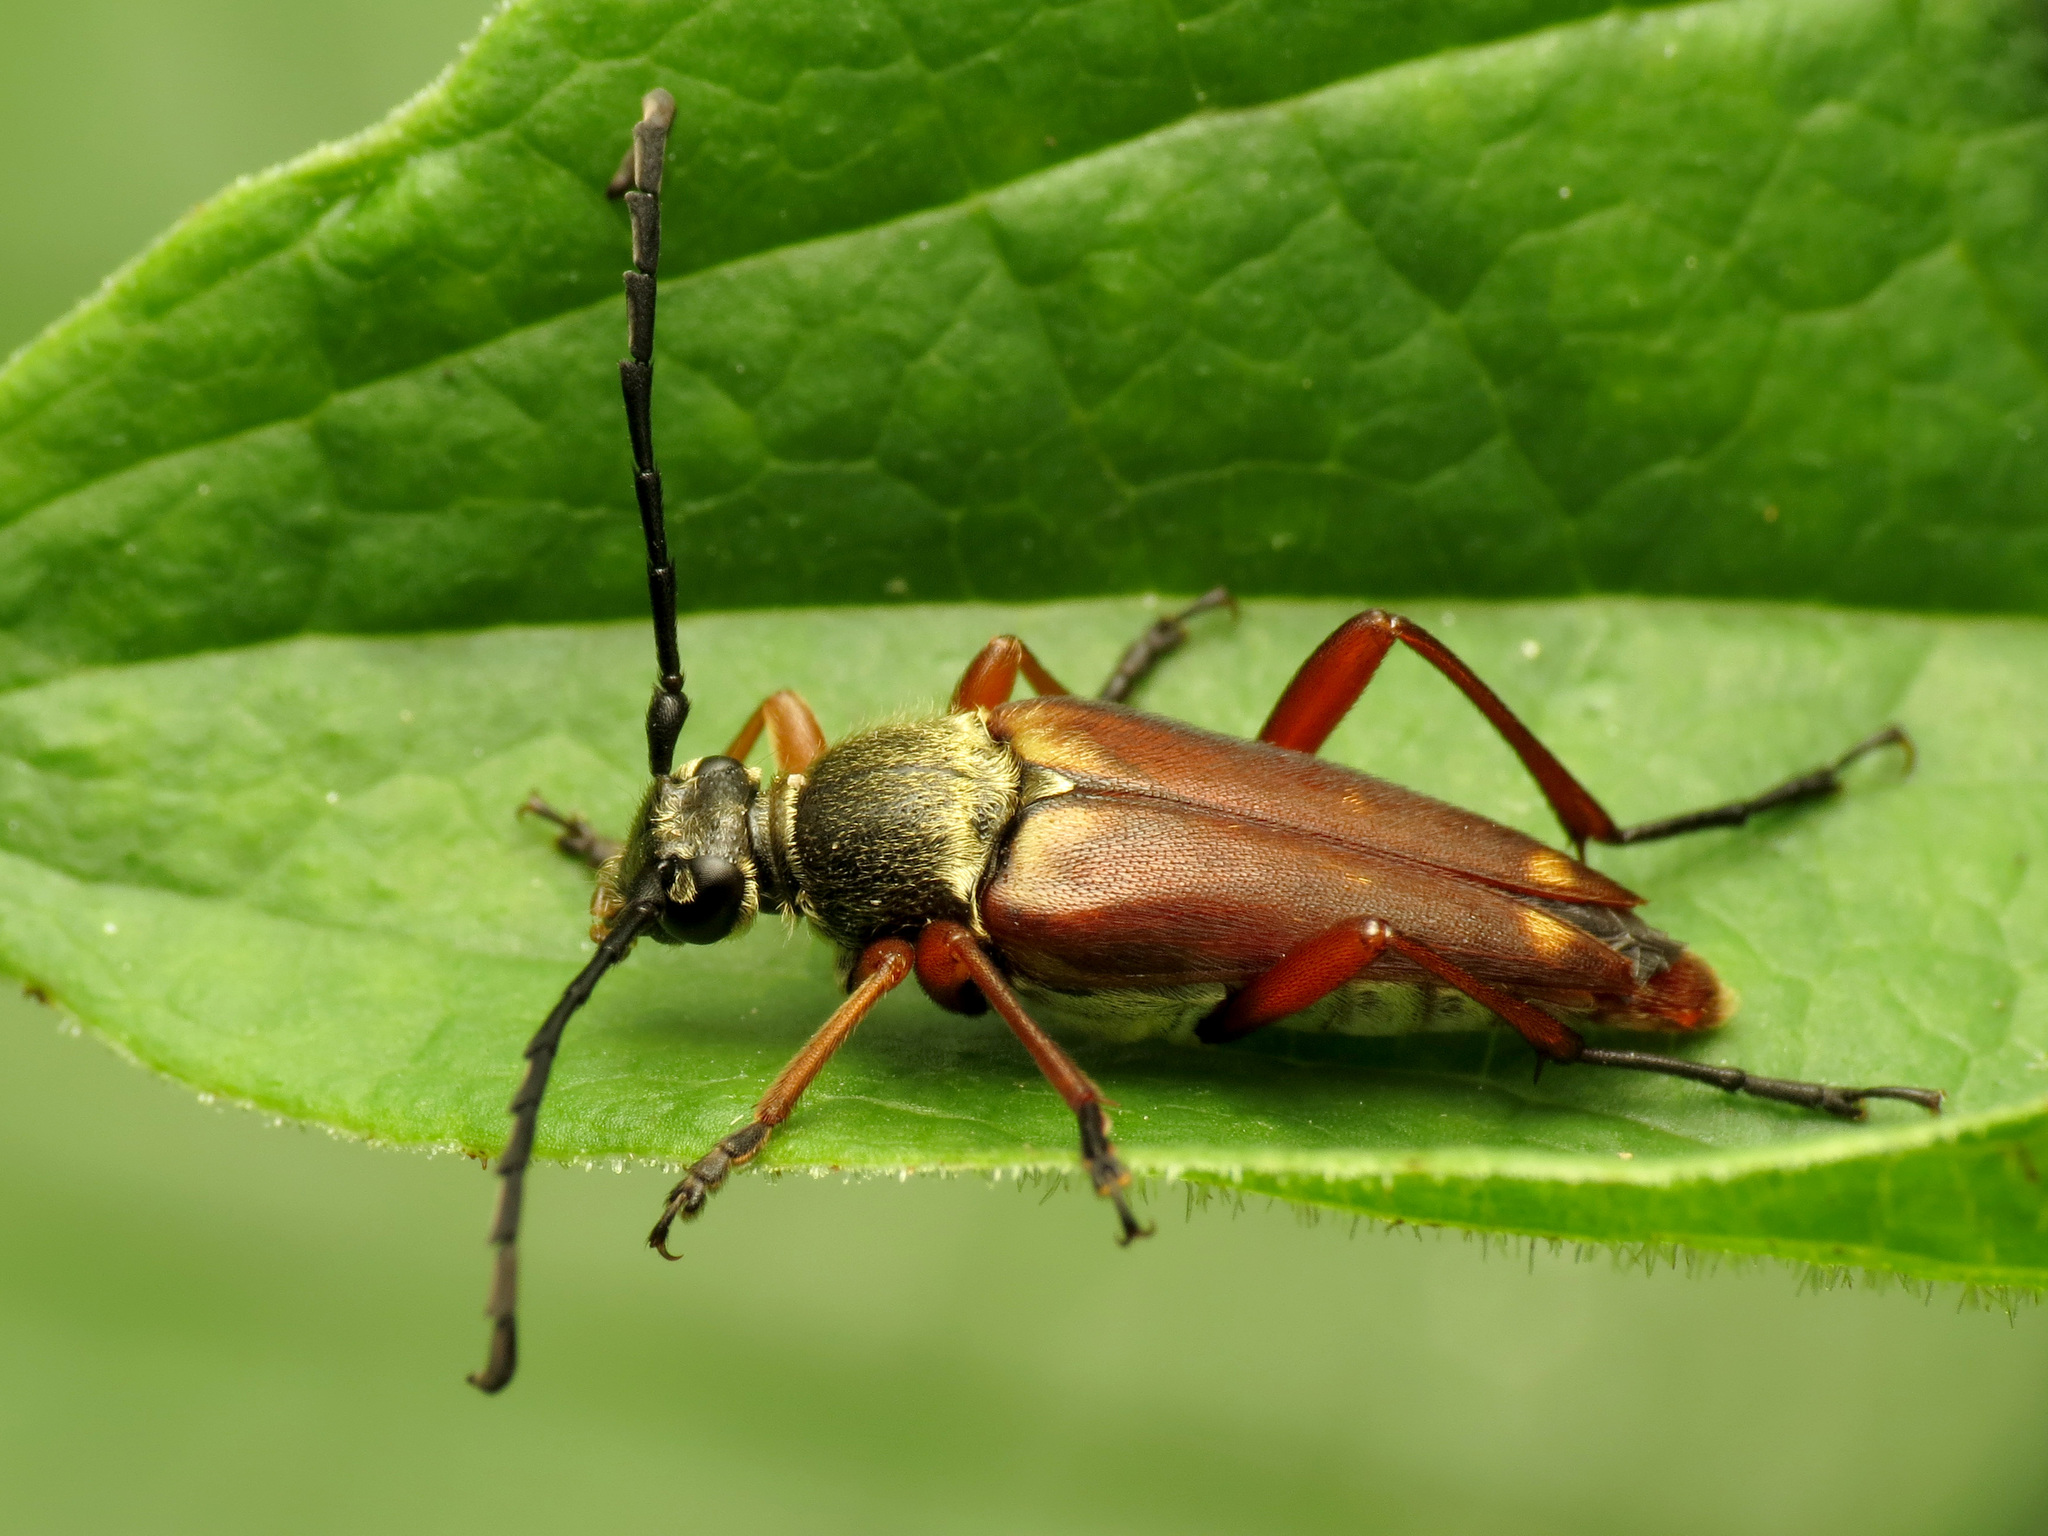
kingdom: Animalia
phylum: Arthropoda
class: Insecta
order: Coleoptera
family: Cerambycidae
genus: Typocerus
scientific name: Typocerus acuticauda
